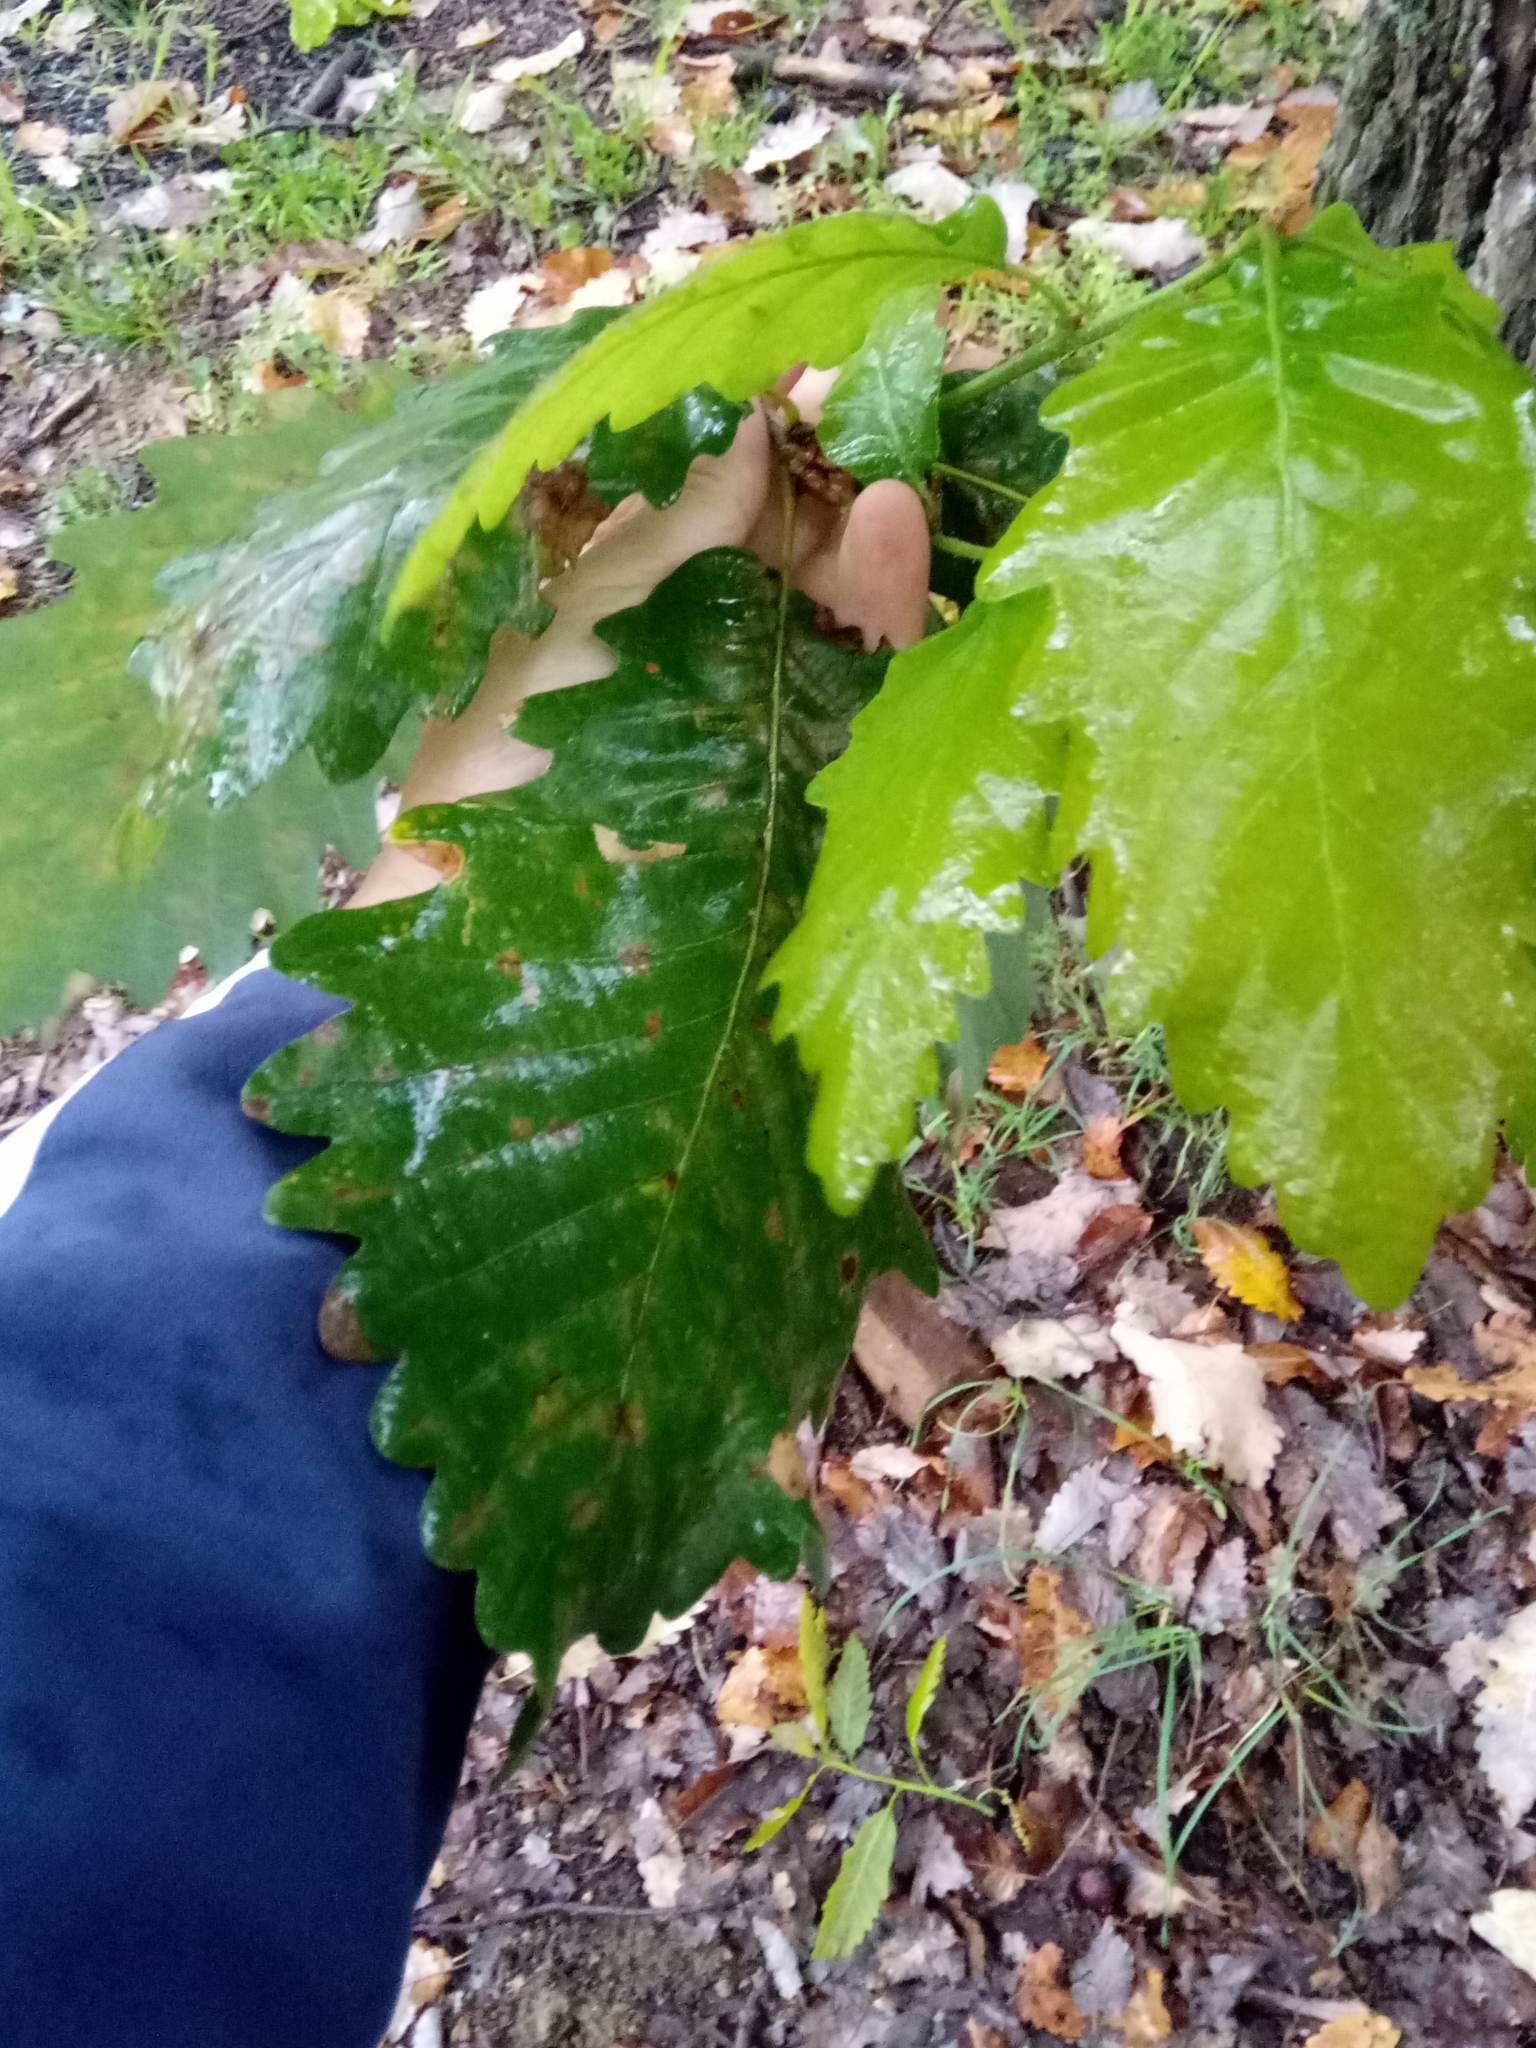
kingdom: Plantae
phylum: Tracheophyta
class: Magnoliopsida
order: Fagales
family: Fagaceae
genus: Quercus
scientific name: Quercus canariensis
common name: Algerian oak
